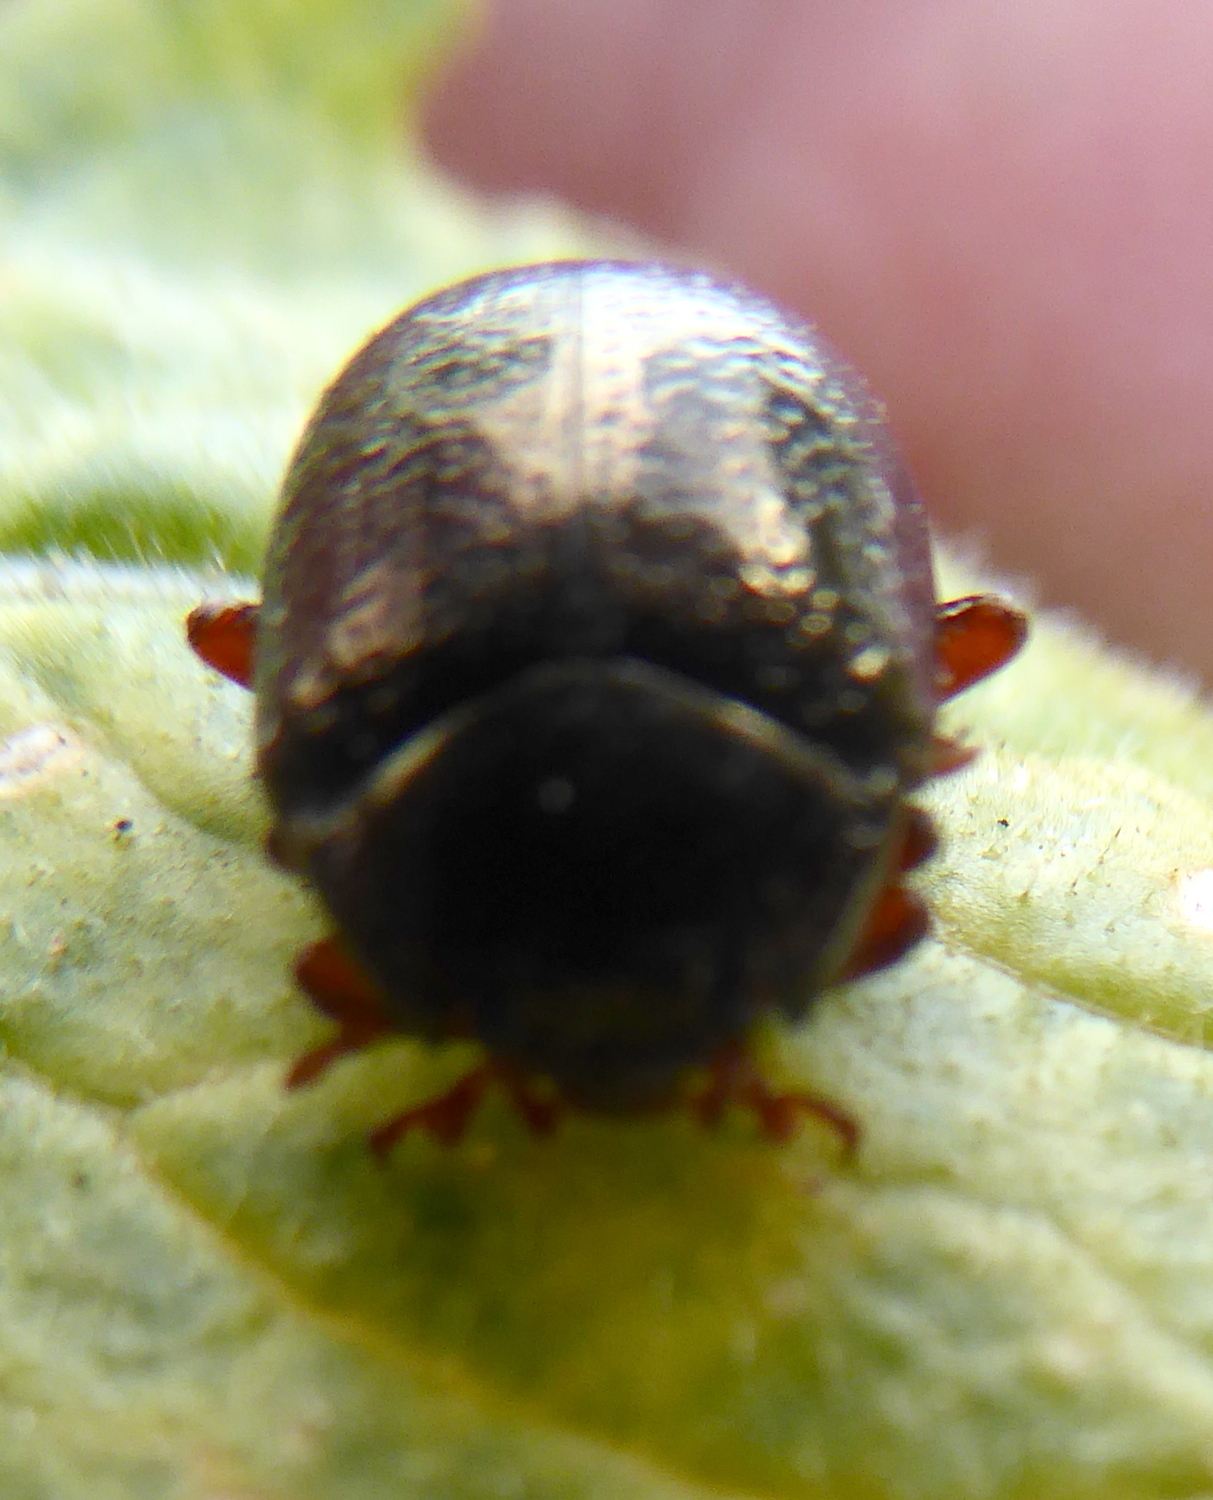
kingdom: Animalia
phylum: Arthropoda
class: Insecta
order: Coleoptera
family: Chrysomelidae
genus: Chrysolina
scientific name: Chrysolina bankii
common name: Leaf beetle
